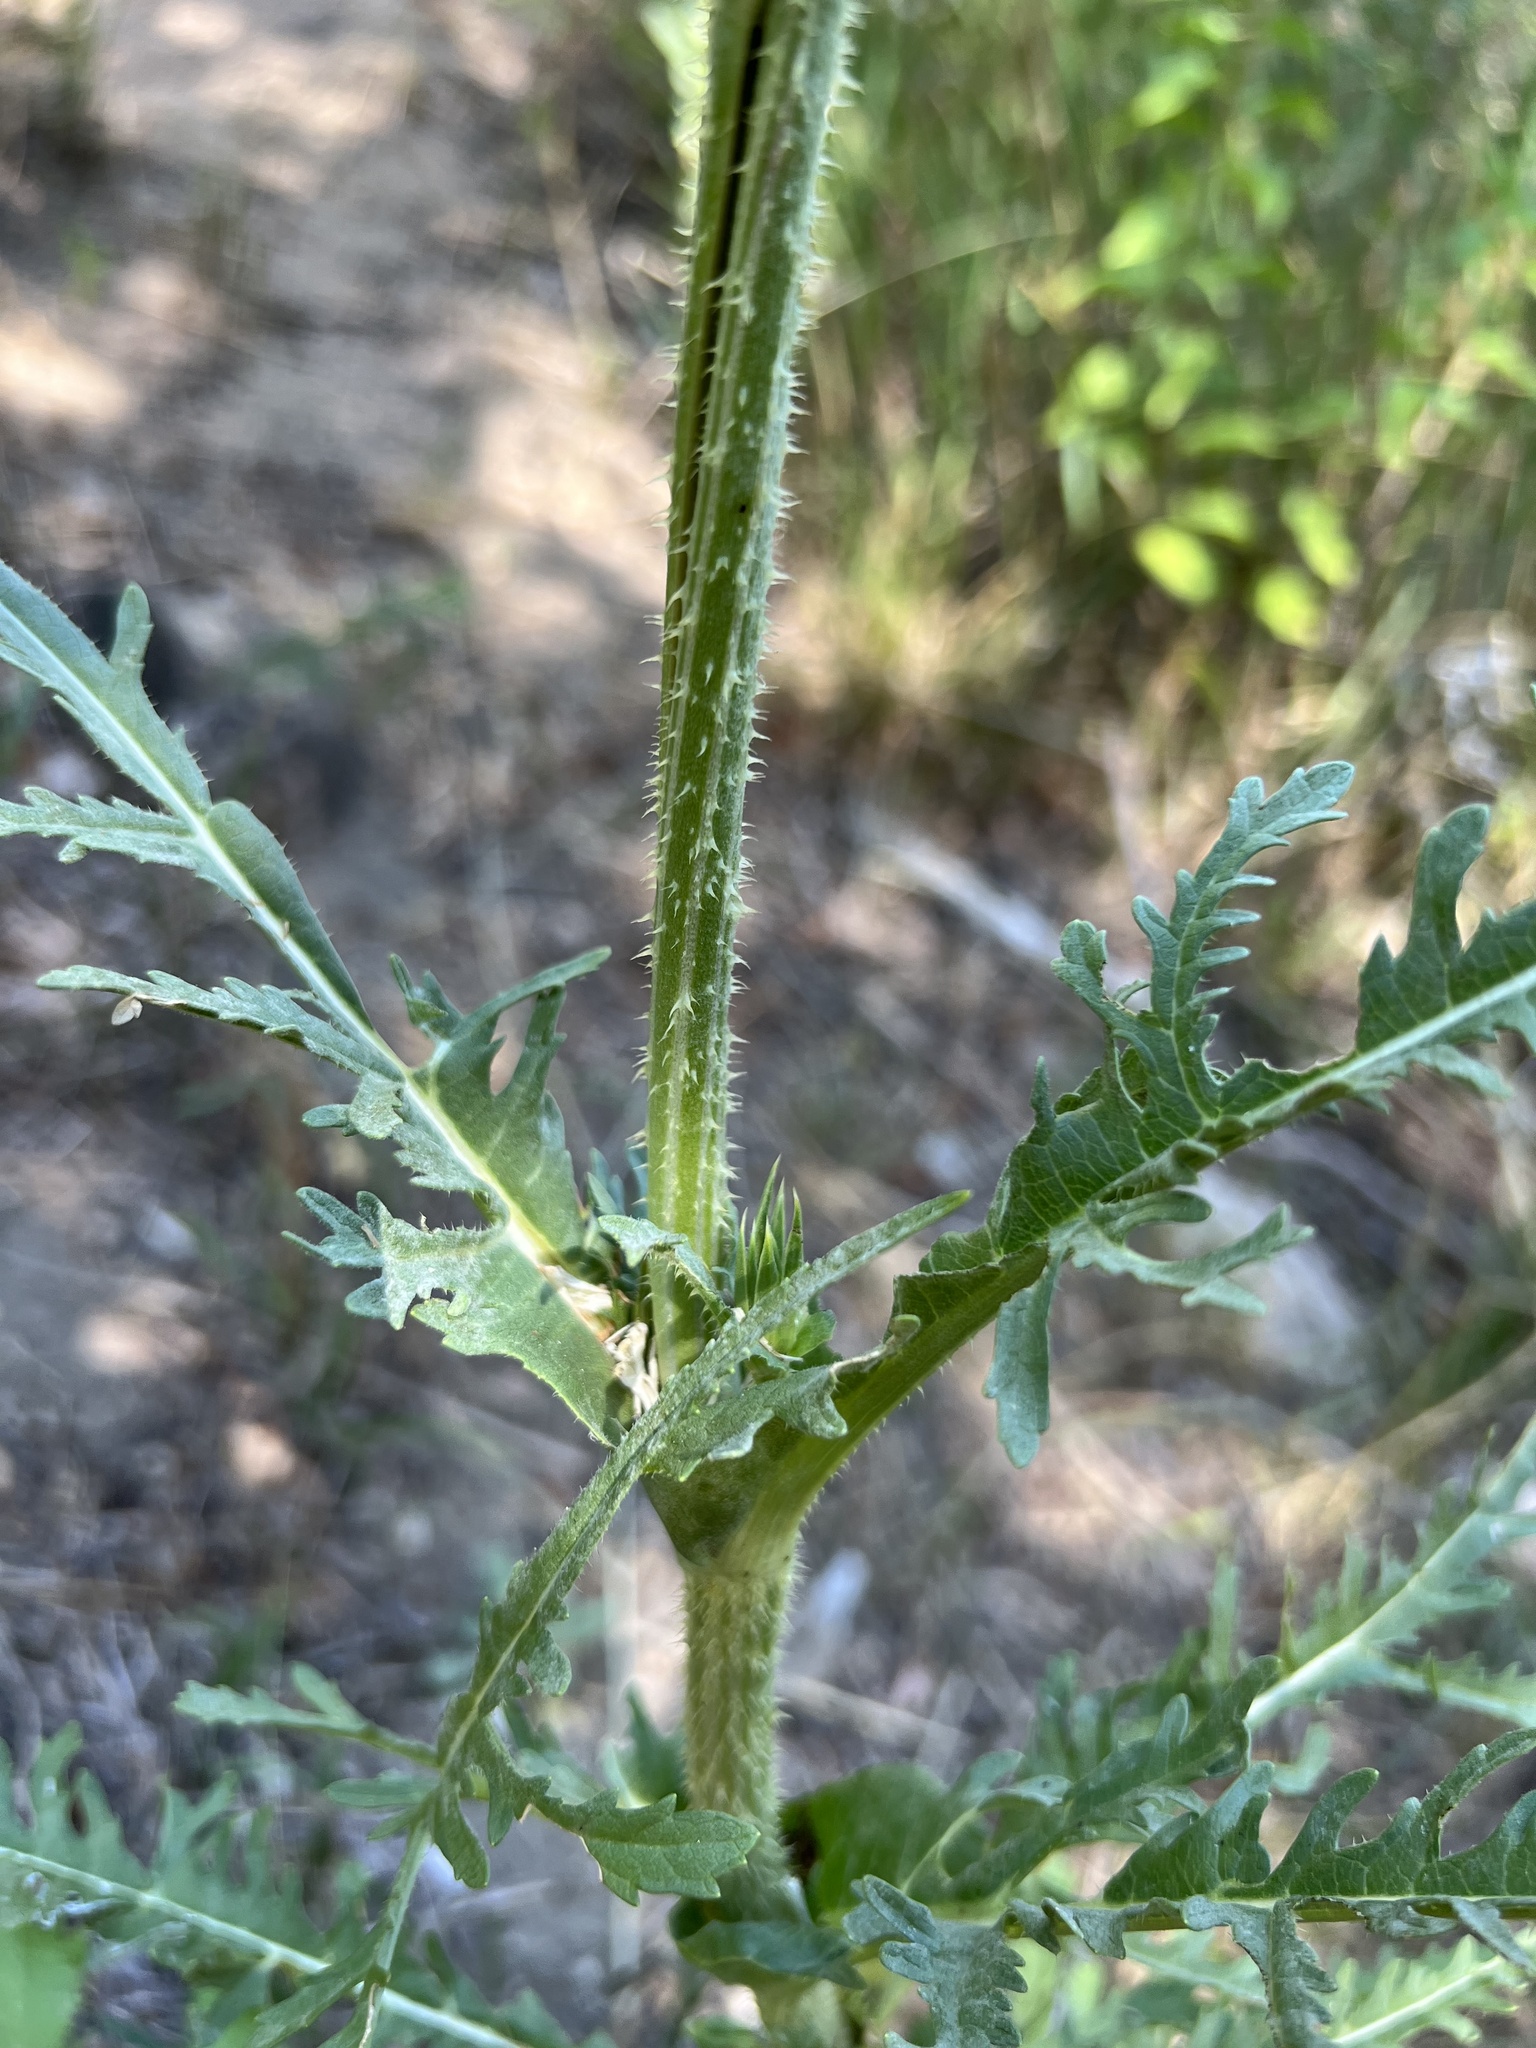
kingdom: Plantae
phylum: Tracheophyta
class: Magnoliopsida
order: Dipsacales
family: Caprifoliaceae
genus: Dipsacus
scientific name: Dipsacus laciniatus
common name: Cut-leaved teasel
